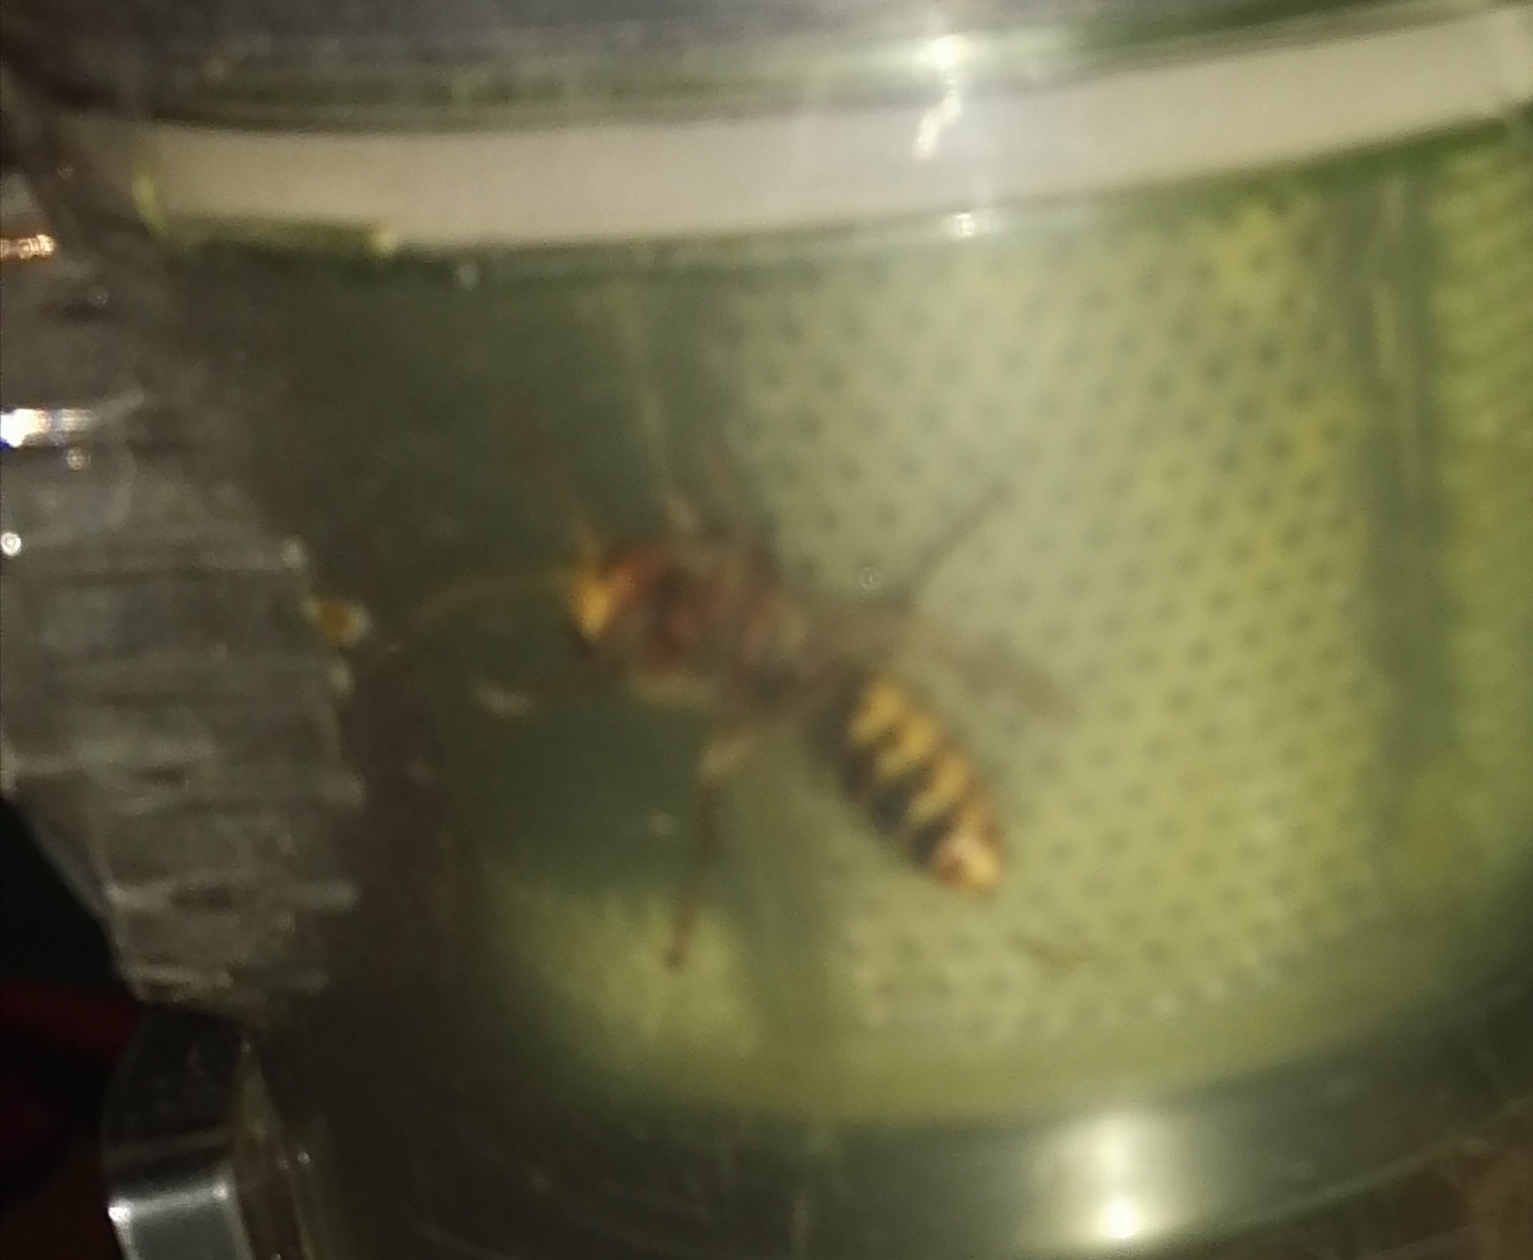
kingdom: Animalia
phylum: Arthropoda
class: Insecta
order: Hymenoptera
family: Vespidae
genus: Vespa
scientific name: Vespa crabro
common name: Hornet
